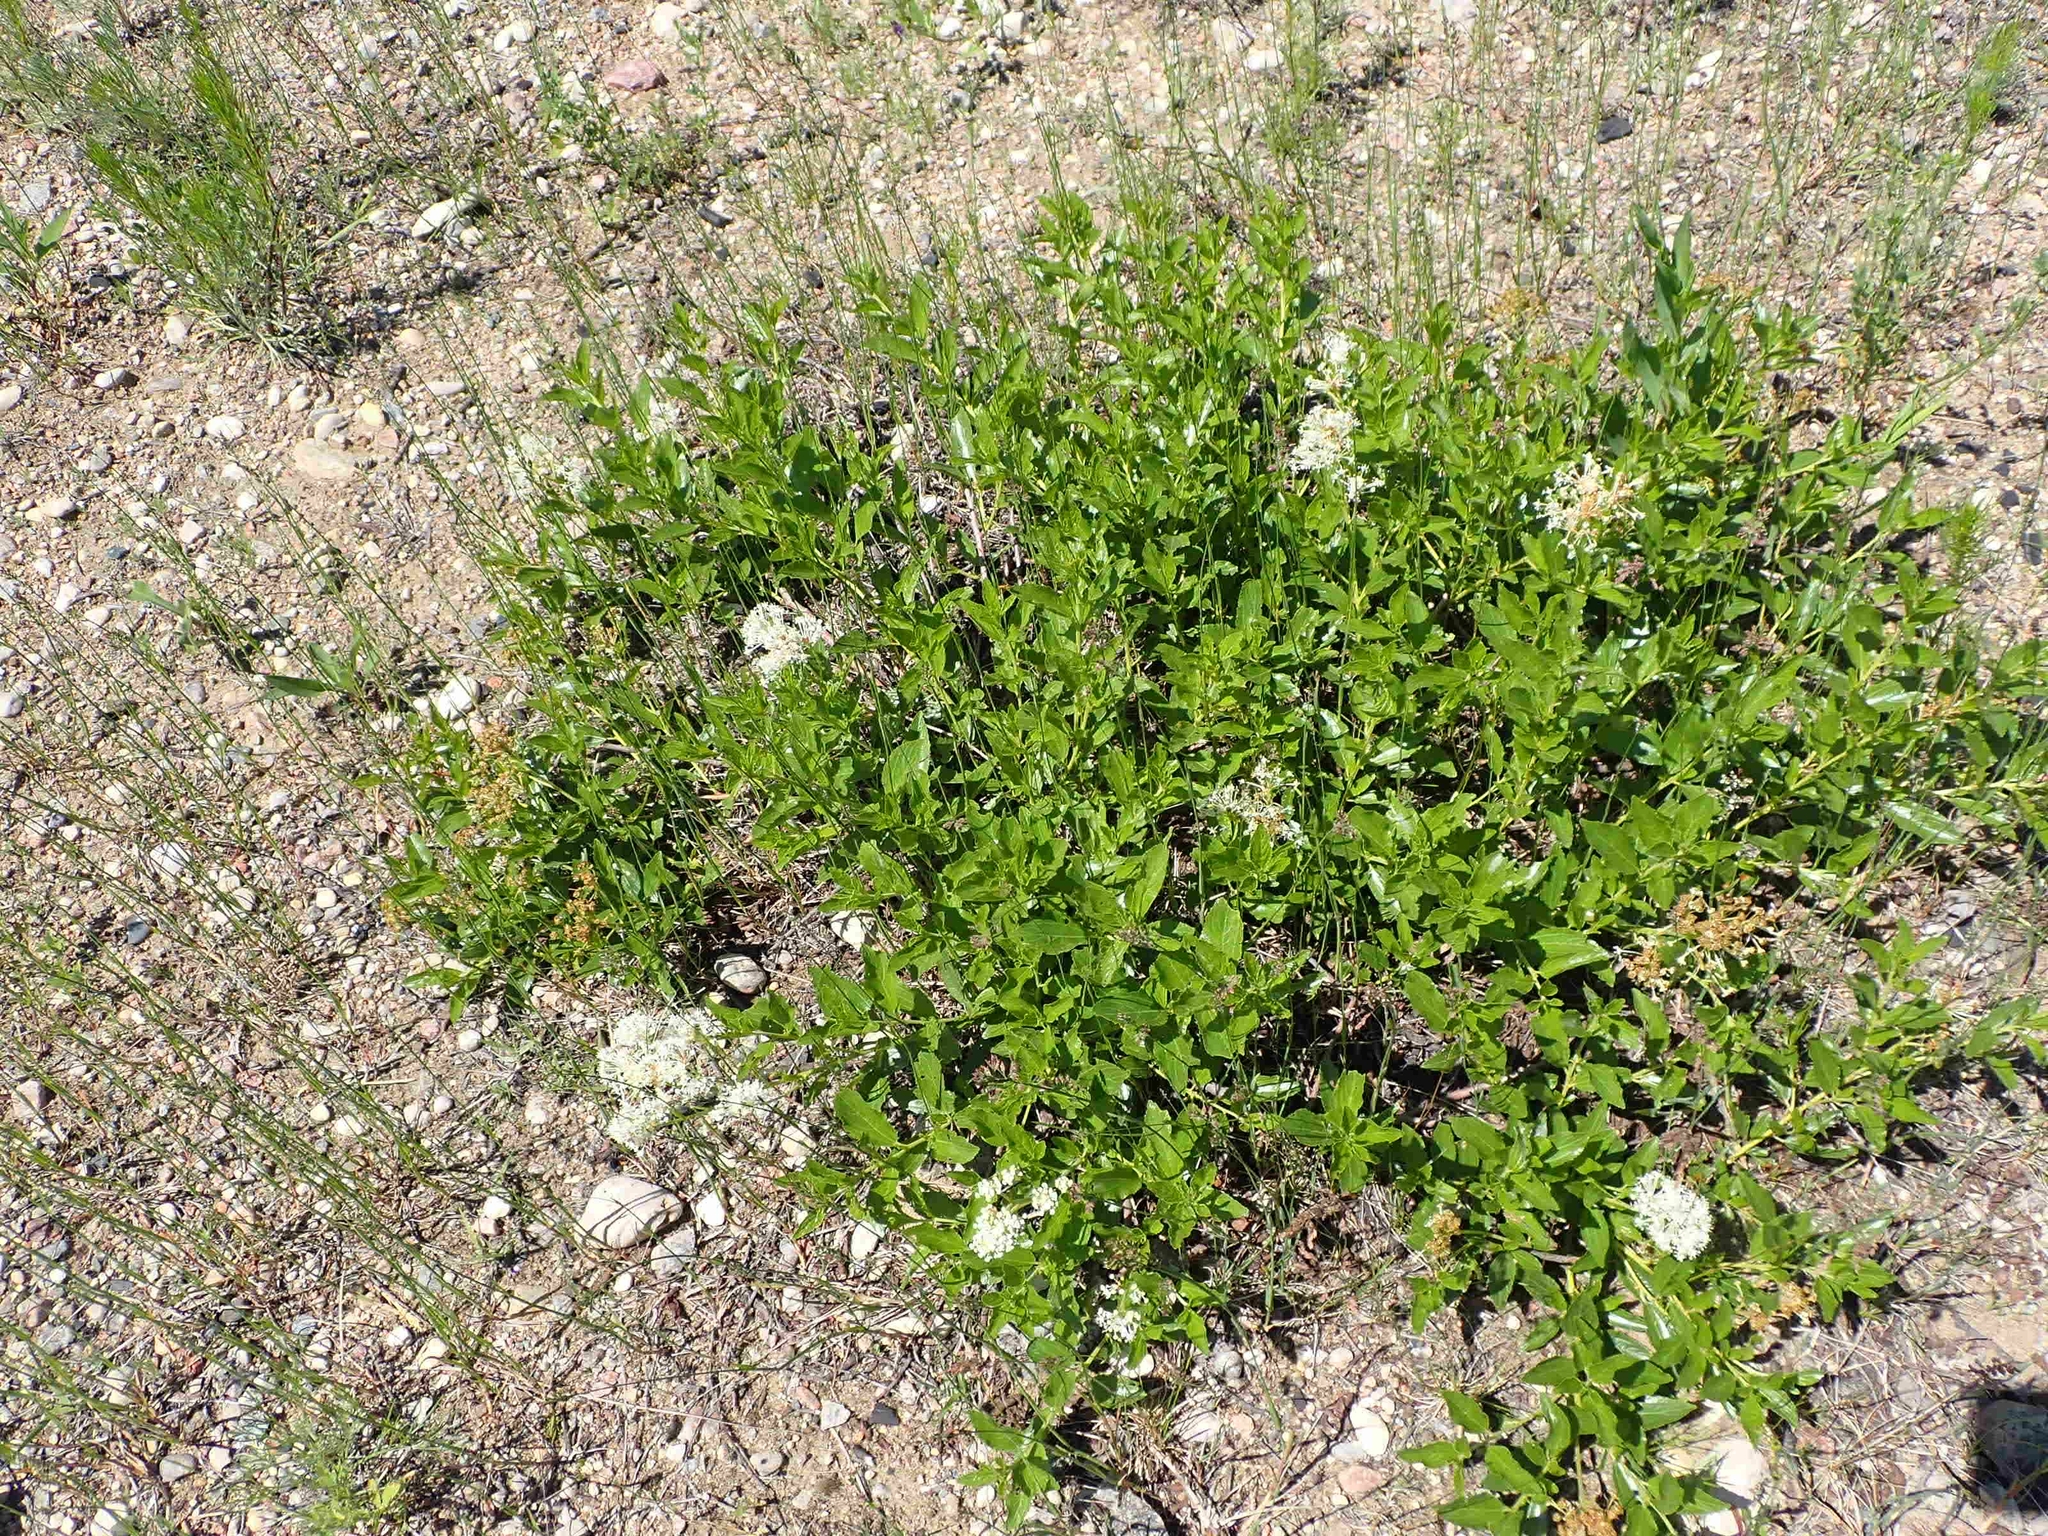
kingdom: Plantae
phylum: Tracheophyta
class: Magnoliopsida
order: Rosales
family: Rhamnaceae
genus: Ceanothus
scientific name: Ceanothus herbaceus
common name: Inland ceanothus
